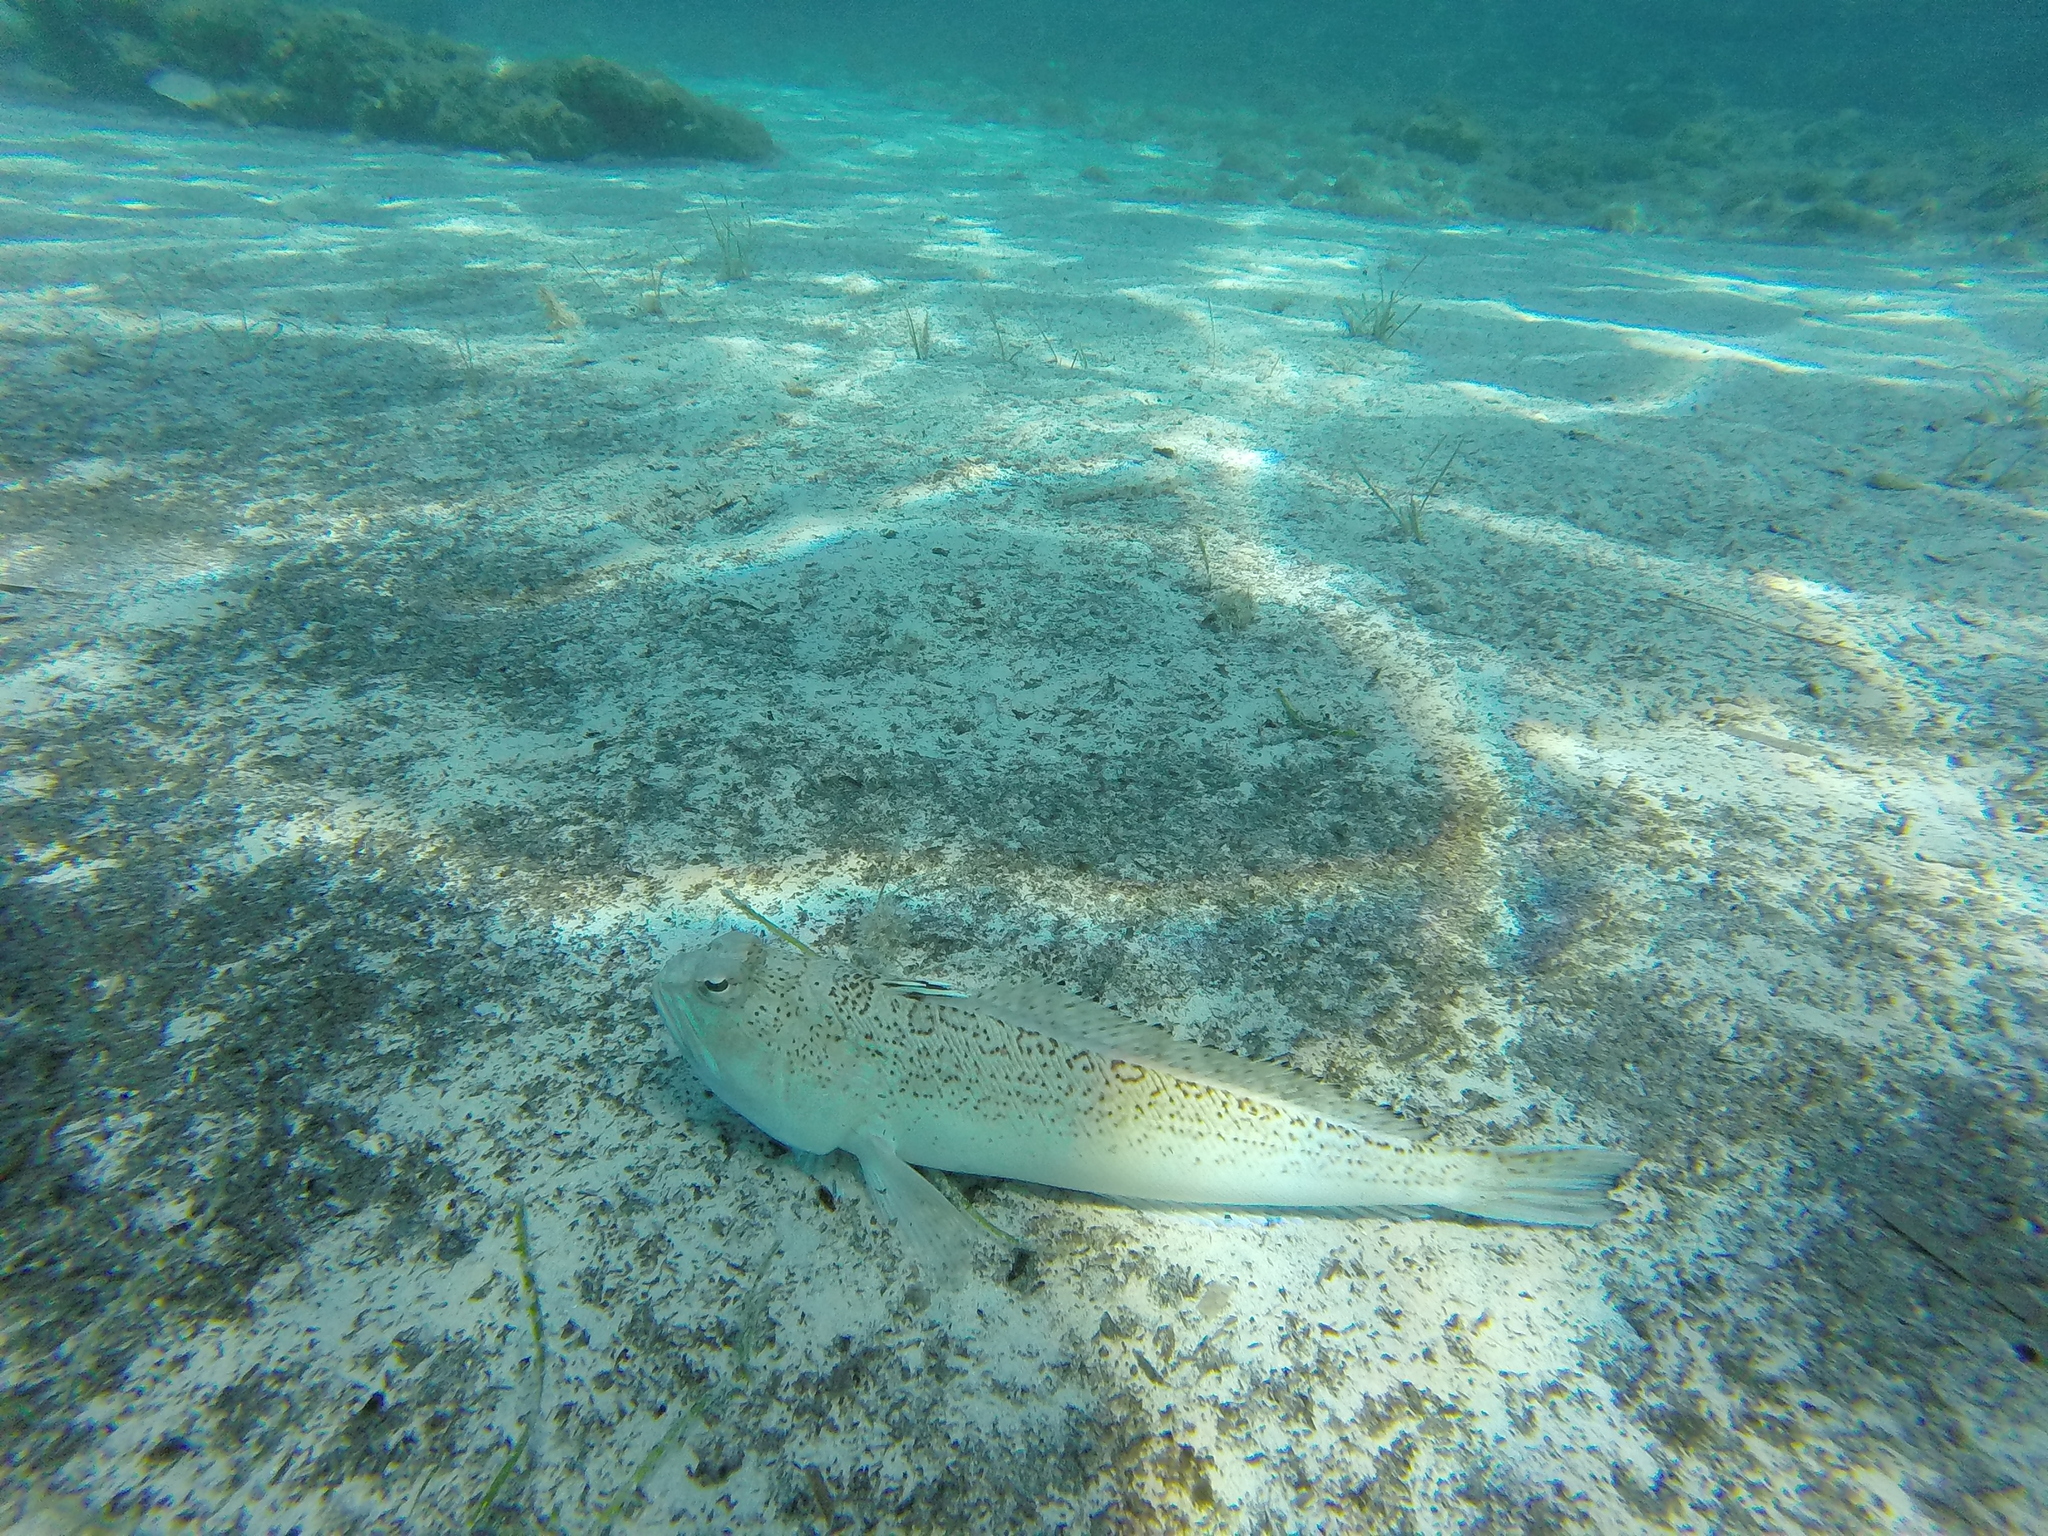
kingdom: Animalia
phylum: Chordata
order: Perciformes
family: Trachinidae
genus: Trachinus
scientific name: Trachinus radiatus
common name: Starry weever
